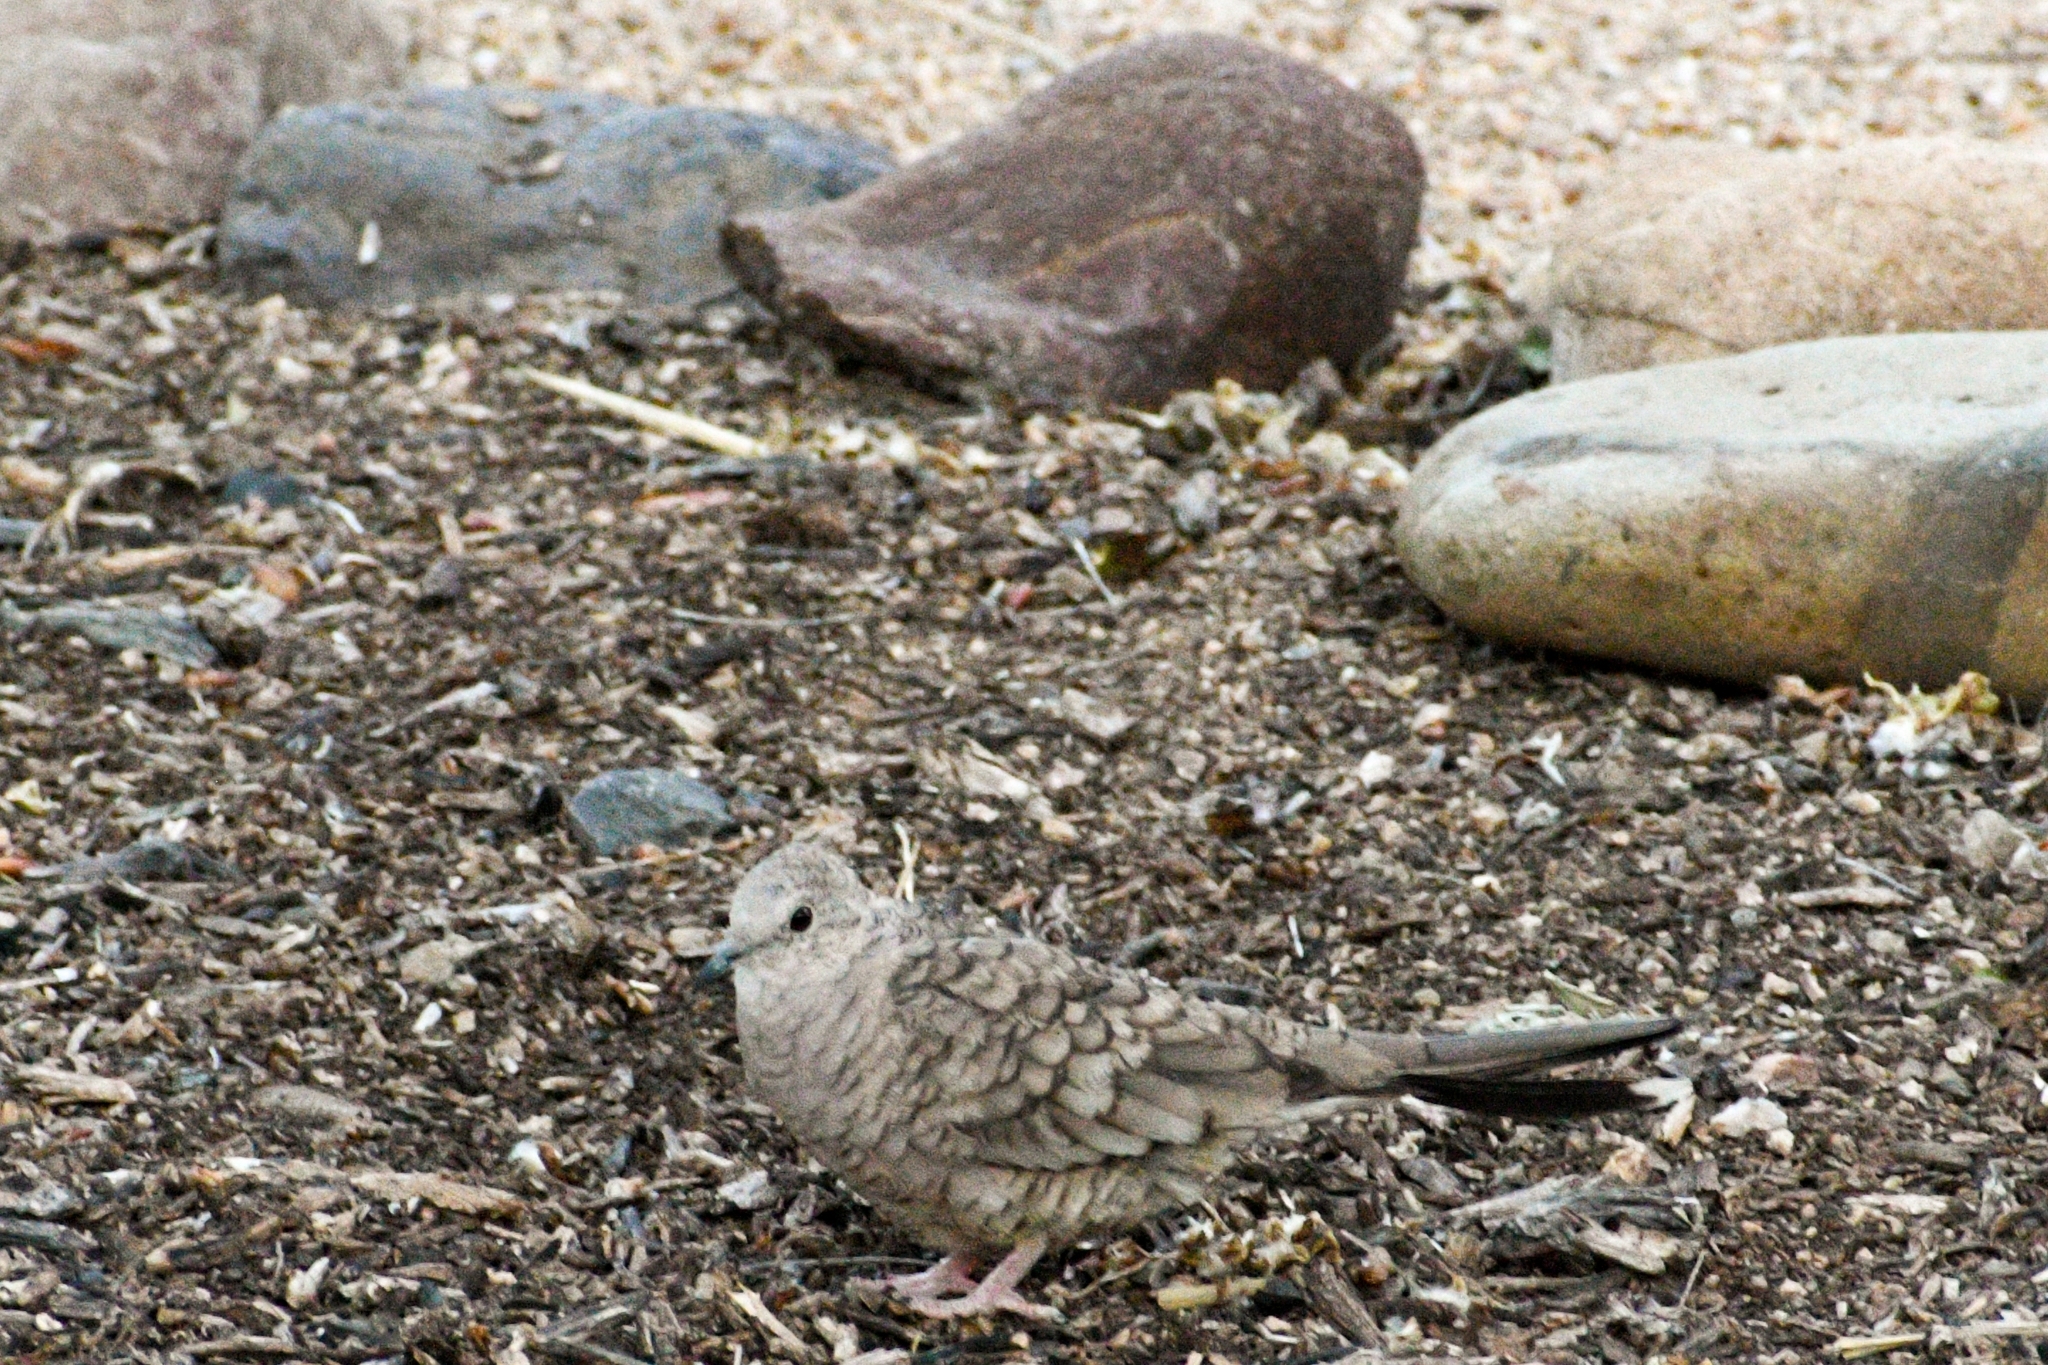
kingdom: Animalia
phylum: Chordata
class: Aves
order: Columbiformes
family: Columbidae
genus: Columbina
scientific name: Columbina inca
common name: Inca dove
